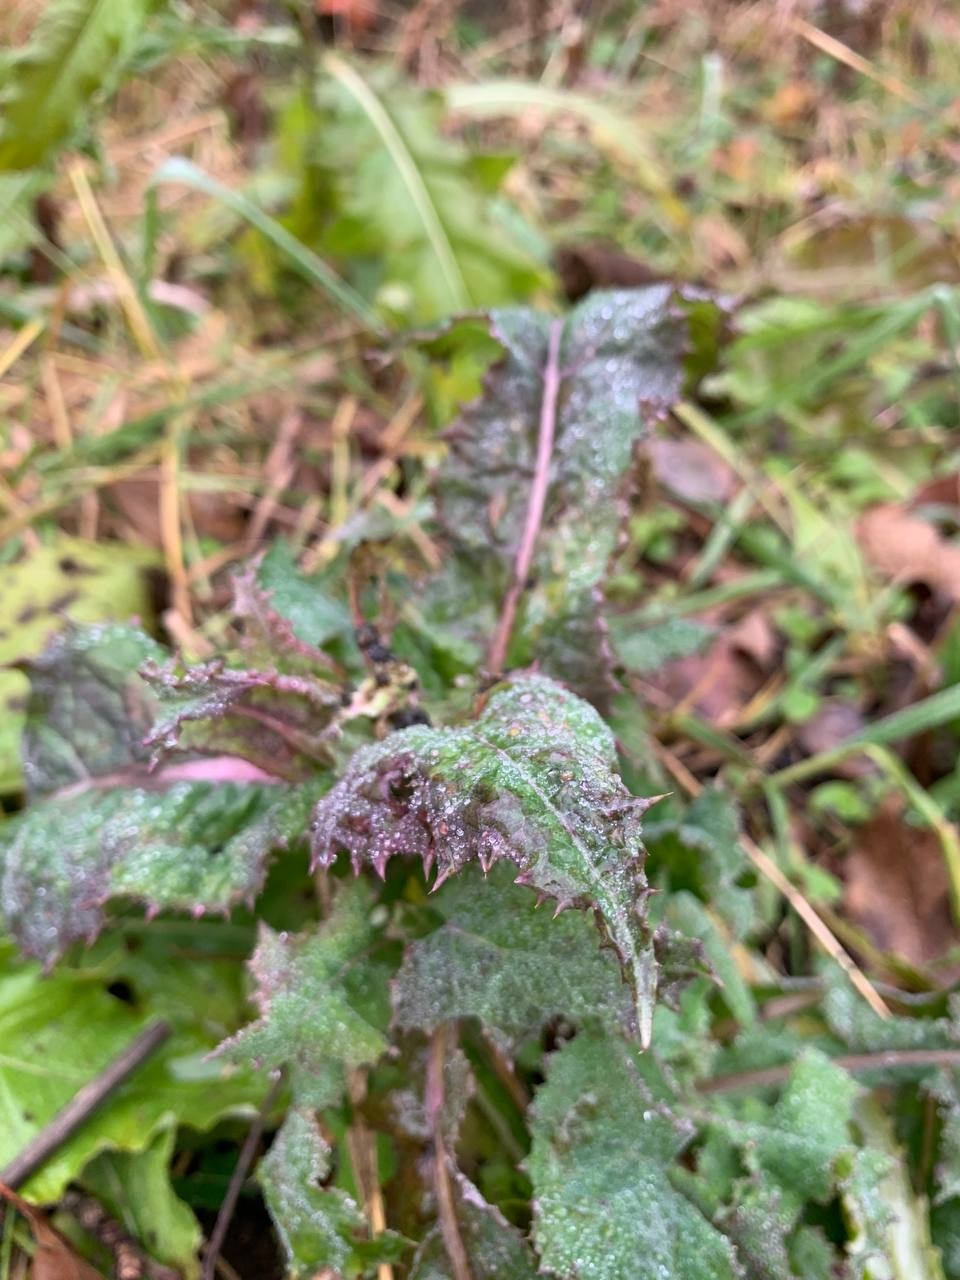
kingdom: Plantae
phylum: Tracheophyta
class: Magnoliopsida
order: Asterales
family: Asteraceae
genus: Sonchus
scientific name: Sonchus oleraceus
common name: Common sowthistle
